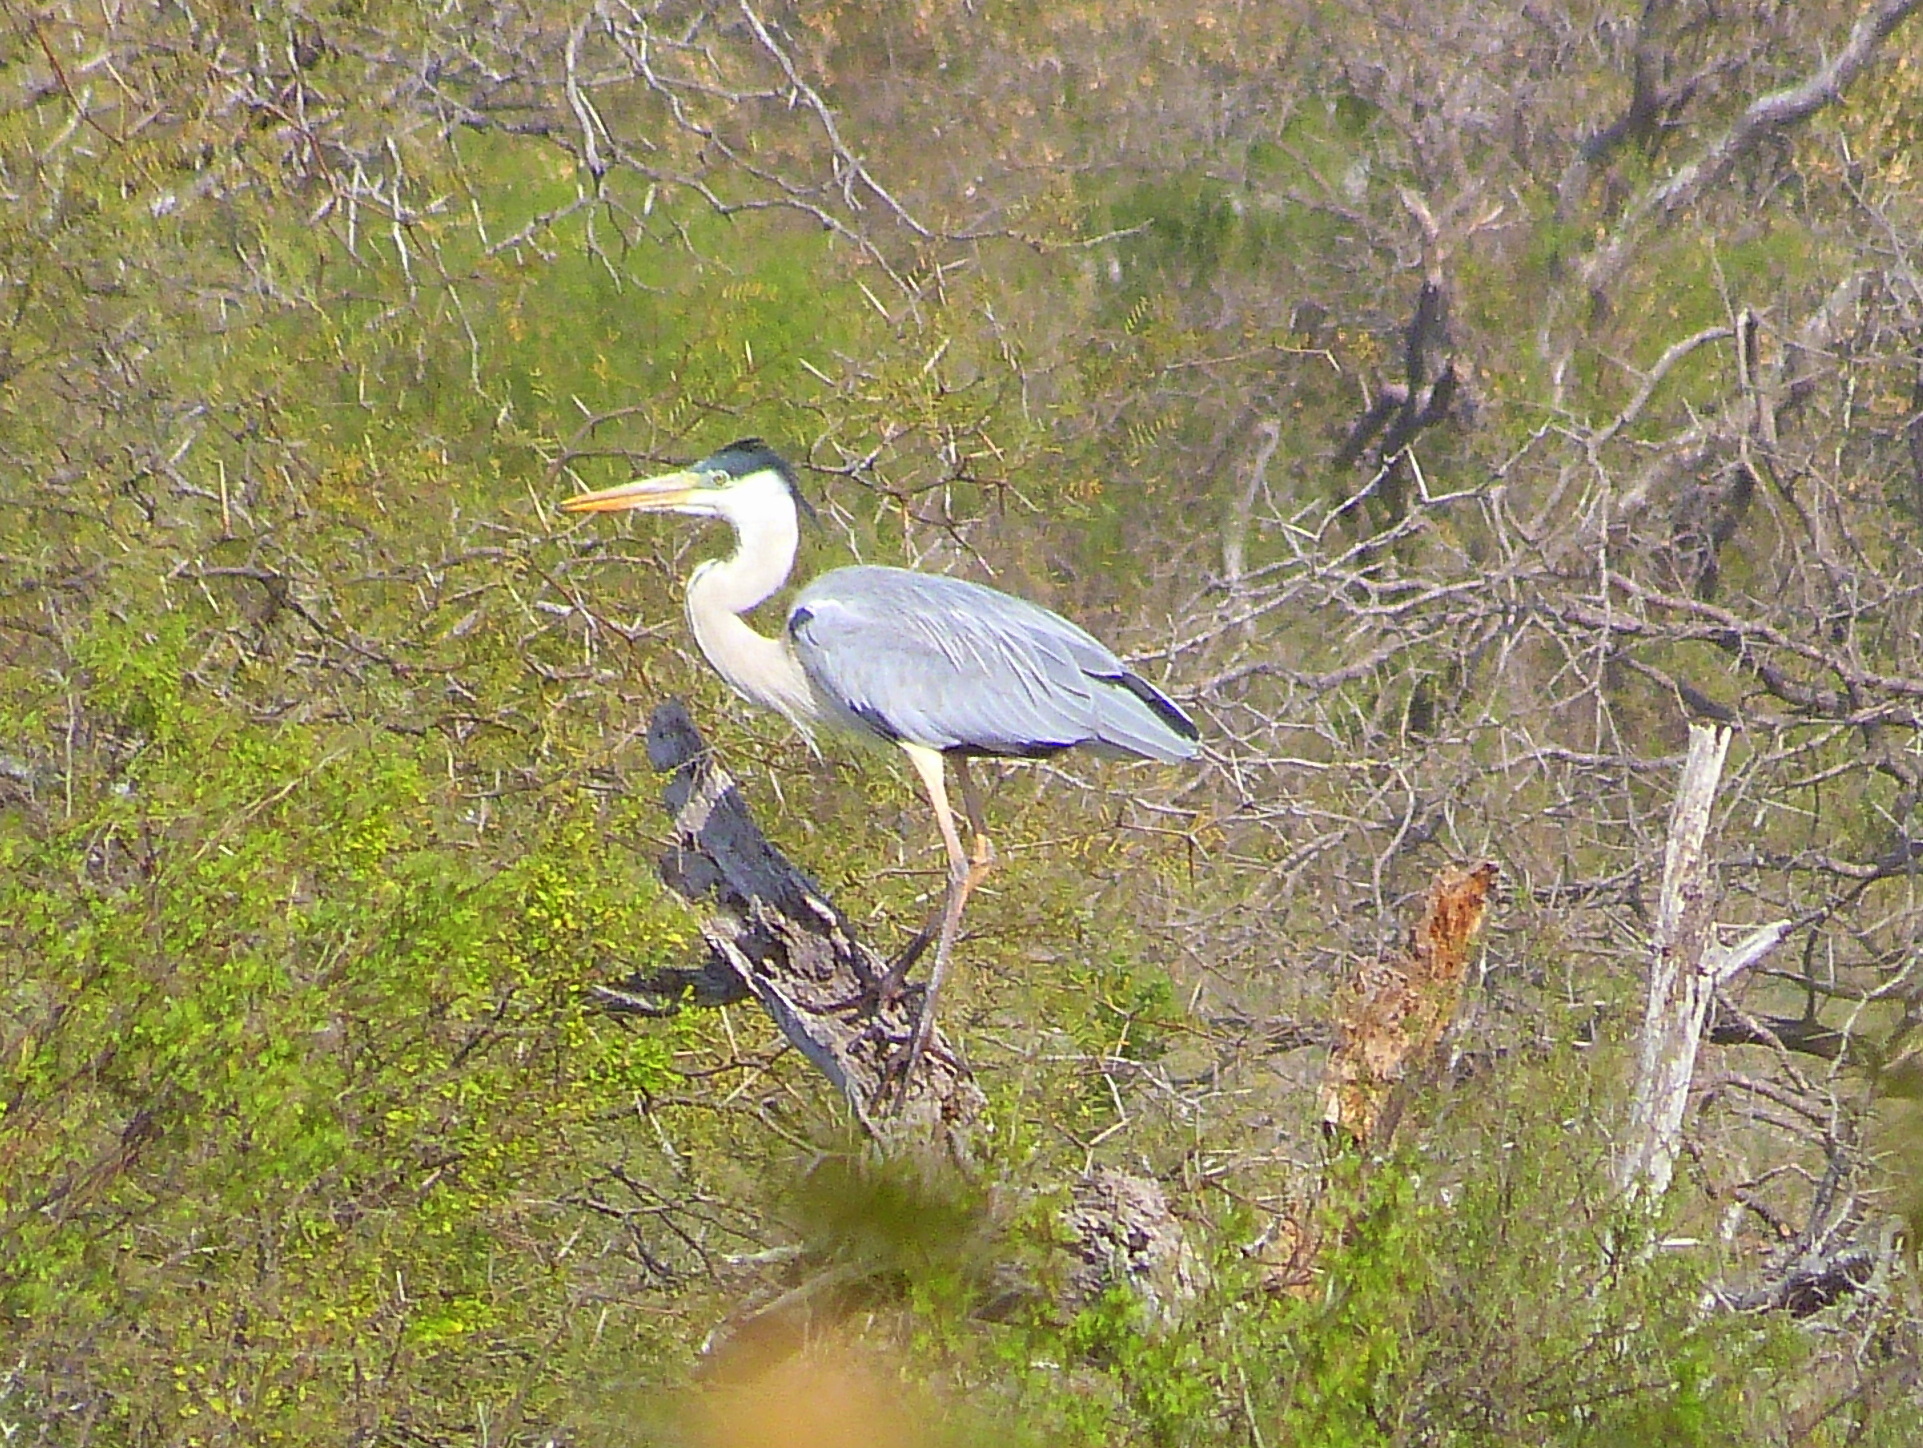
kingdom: Animalia
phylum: Chordata
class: Aves
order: Pelecaniformes
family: Ardeidae
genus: Ardea
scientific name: Ardea cocoi
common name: Cocoi heron
